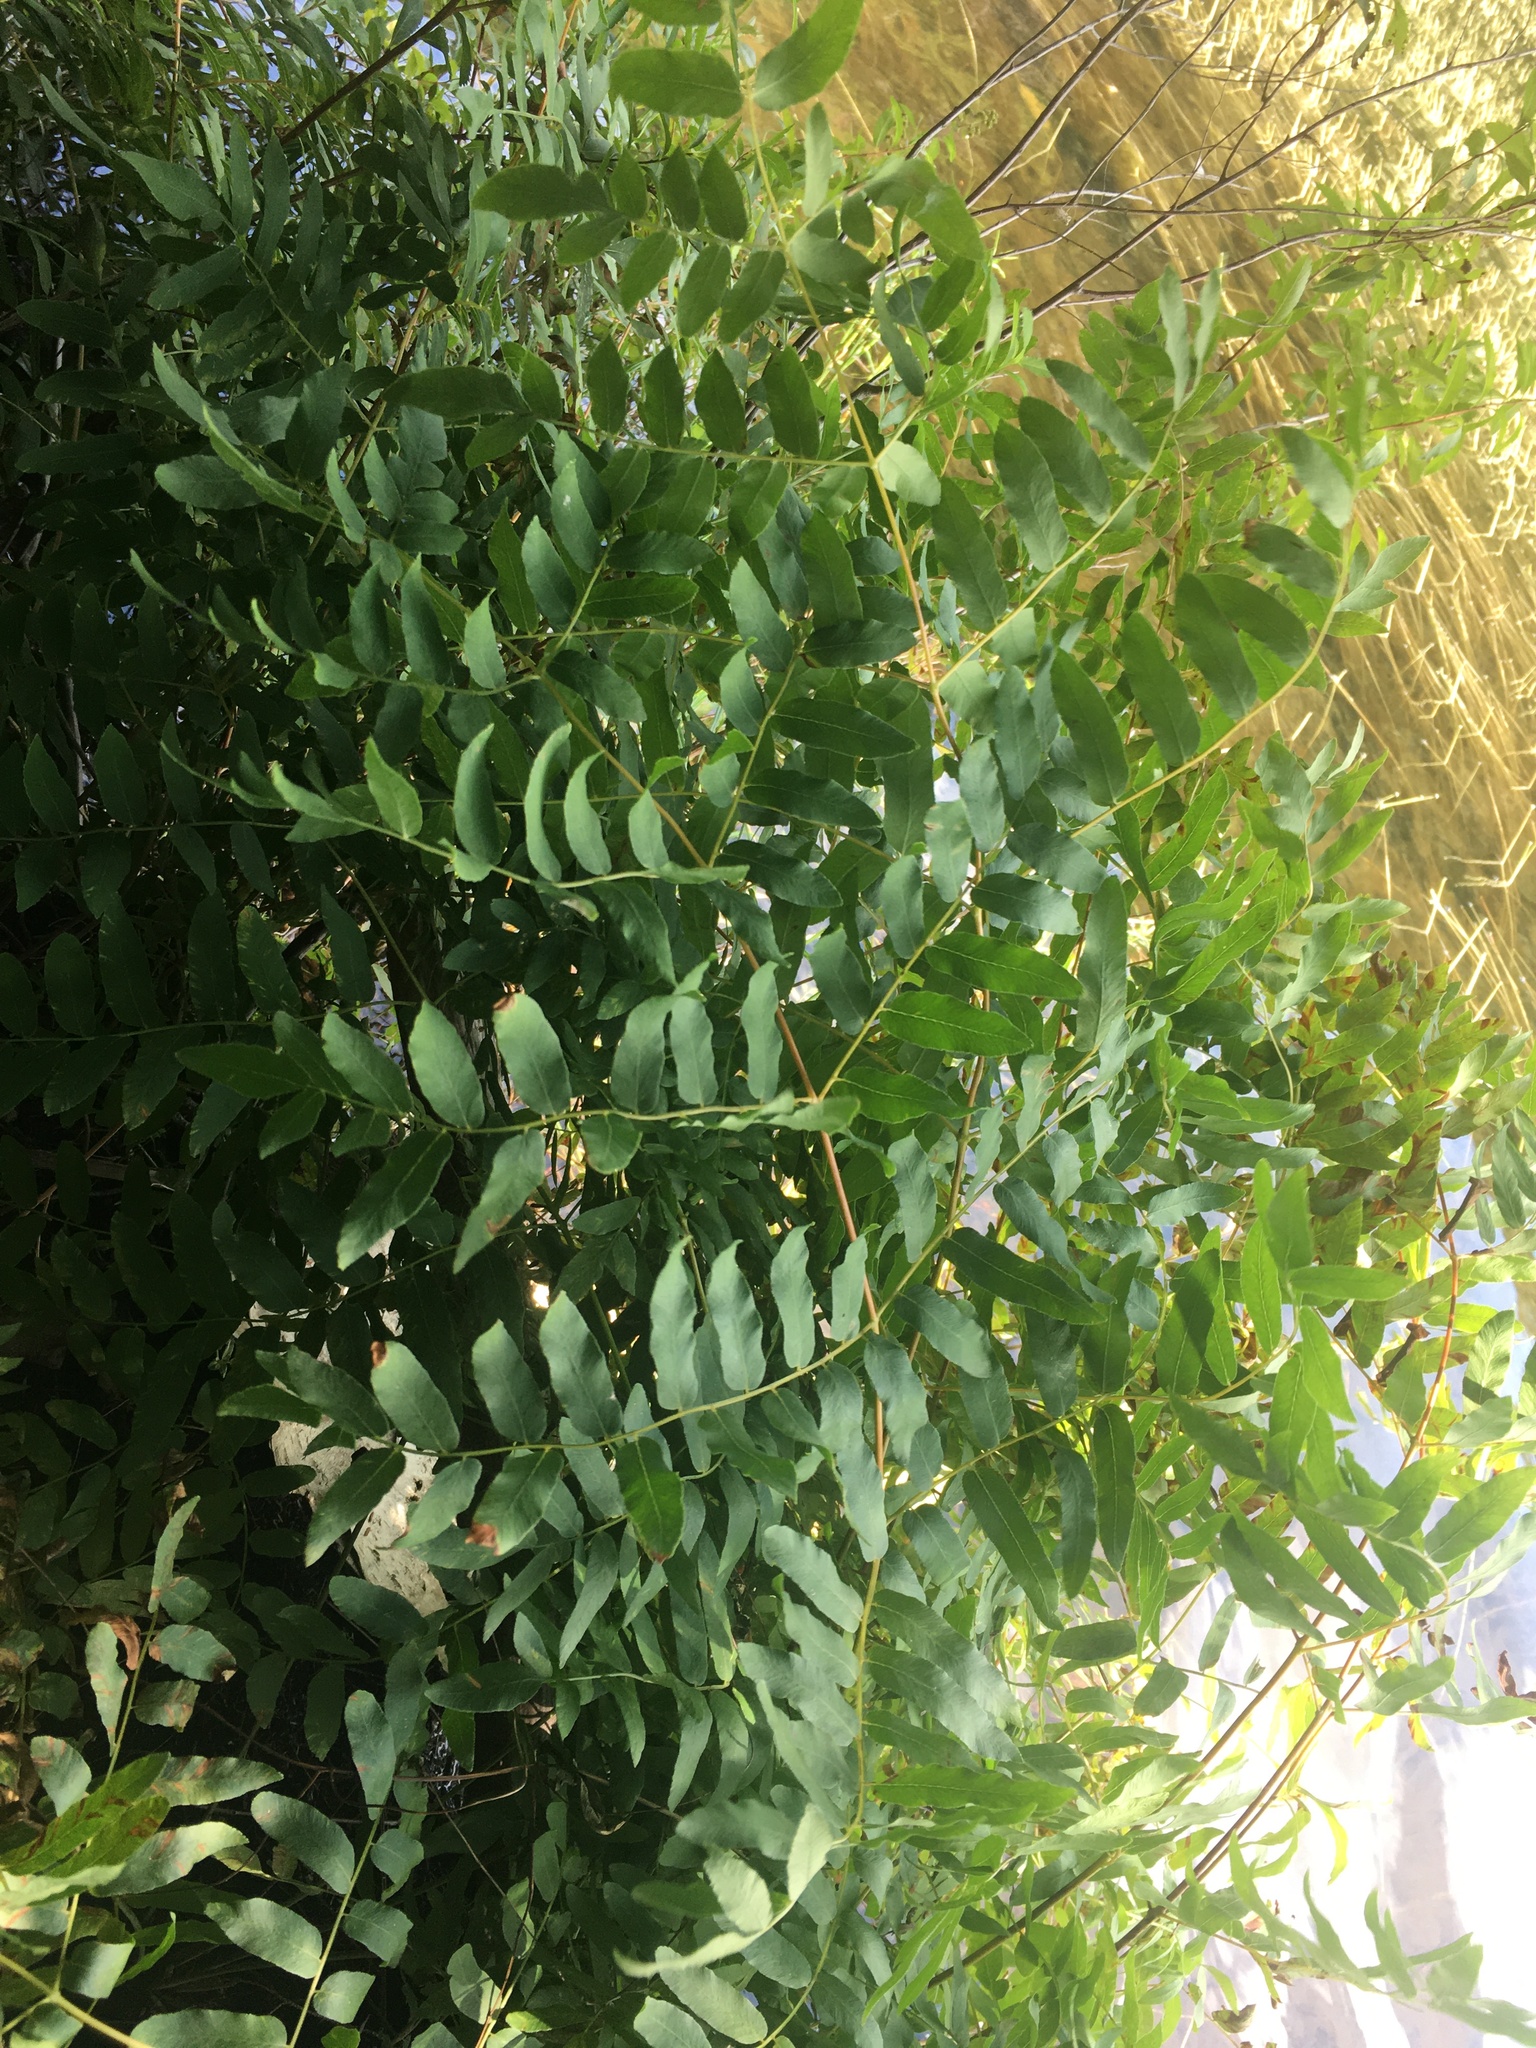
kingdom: Plantae
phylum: Tracheophyta
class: Polypodiopsida
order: Osmundales
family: Osmundaceae
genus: Osmunda
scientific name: Osmunda spectabilis
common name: American royal fern
